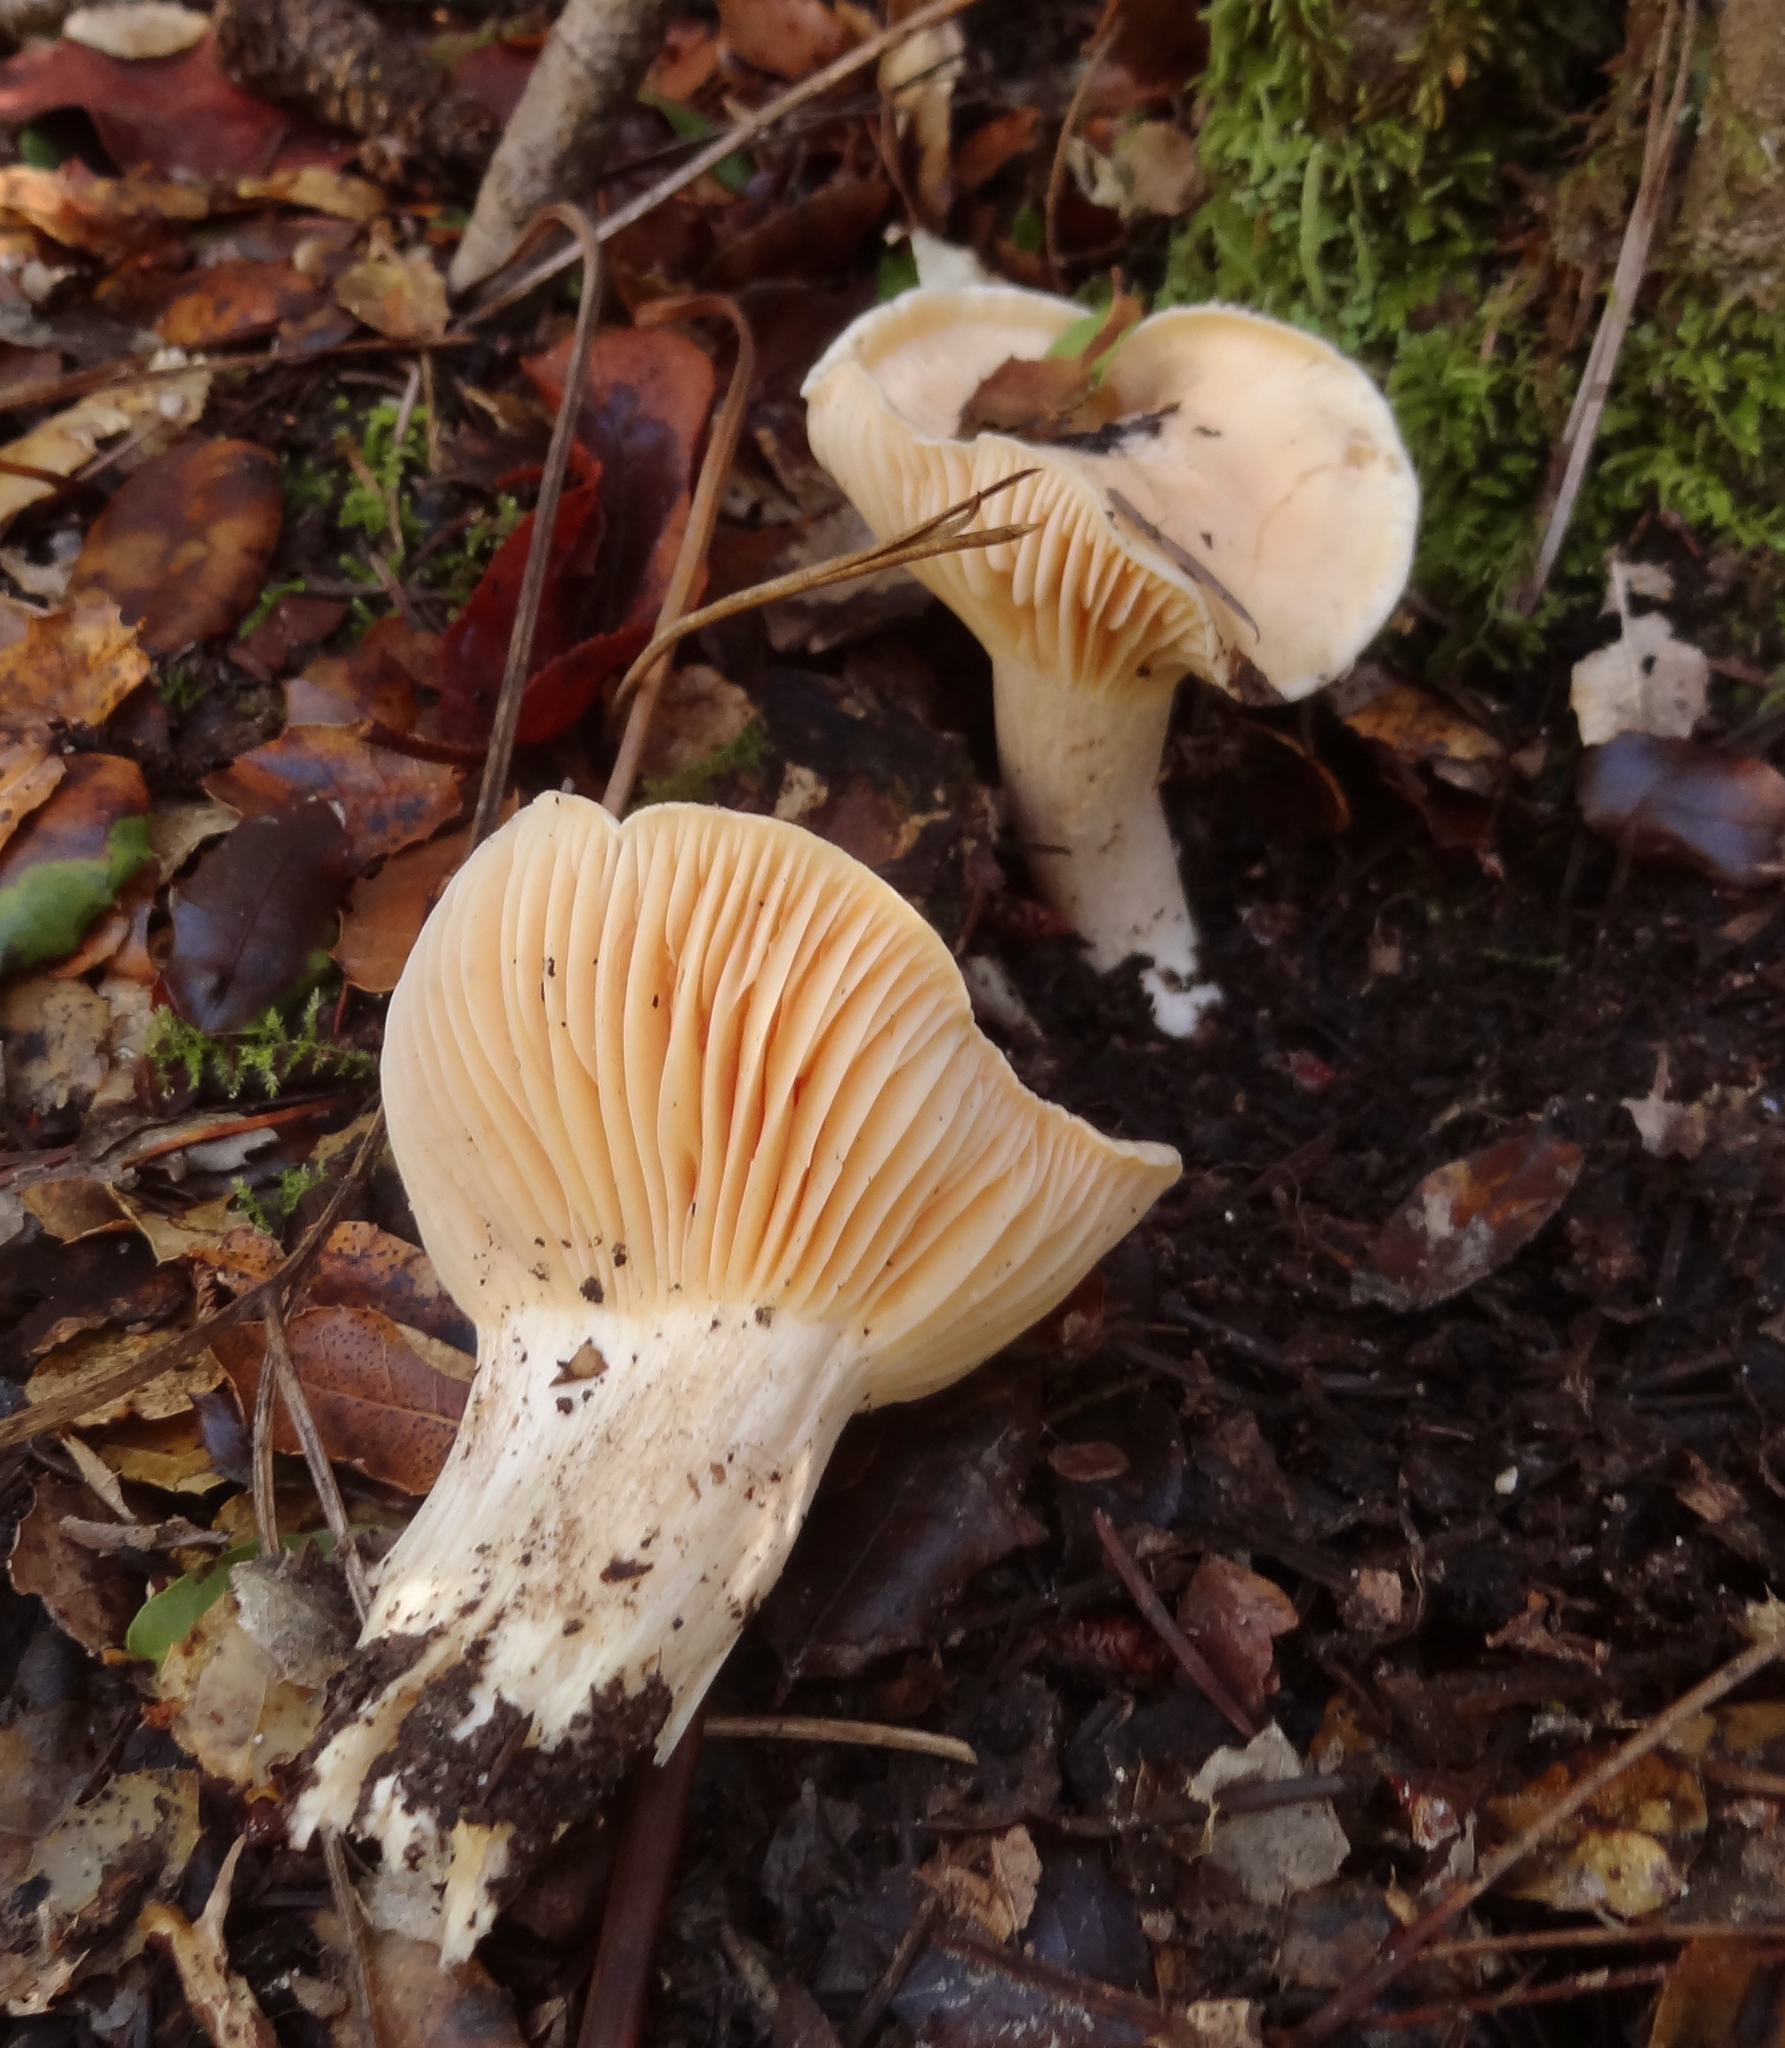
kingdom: Fungi
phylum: Basidiomycota
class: Agaricomycetes
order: Agaricales
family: Hygrophoraceae
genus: Cuphophyllus
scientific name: Cuphophyllus pratensis
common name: Meadow waxcap
